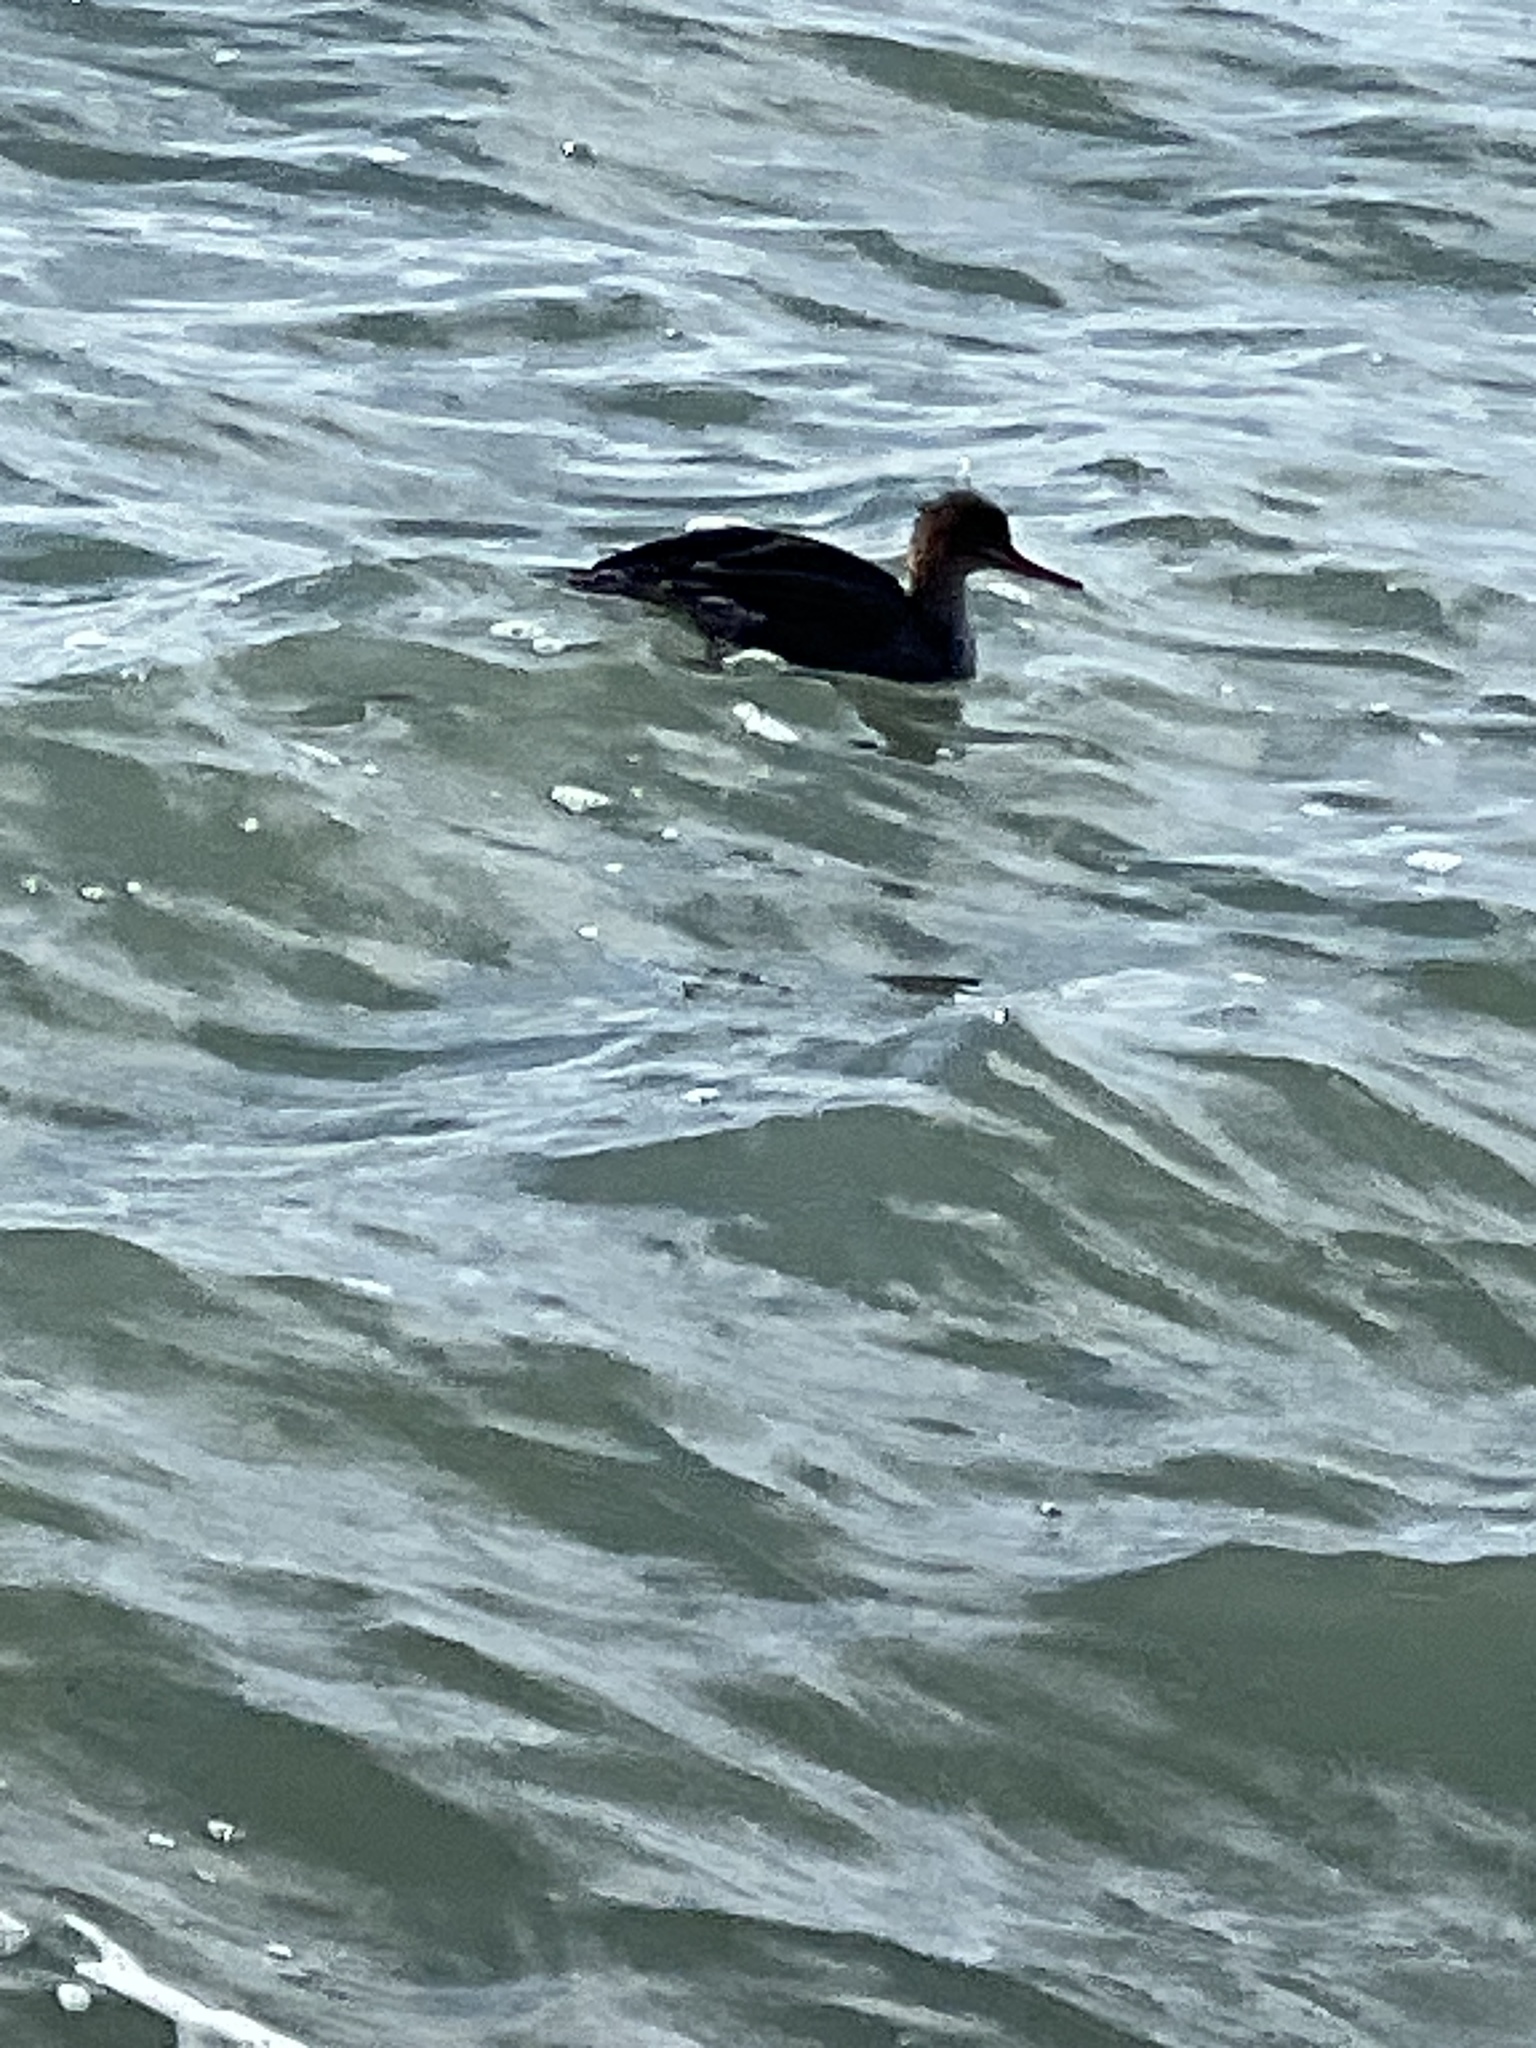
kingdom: Animalia
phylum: Chordata
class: Aves
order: Anseriformes
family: Anatidae
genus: Mergus
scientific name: Mergus serrator
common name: Red-breasted merganser
